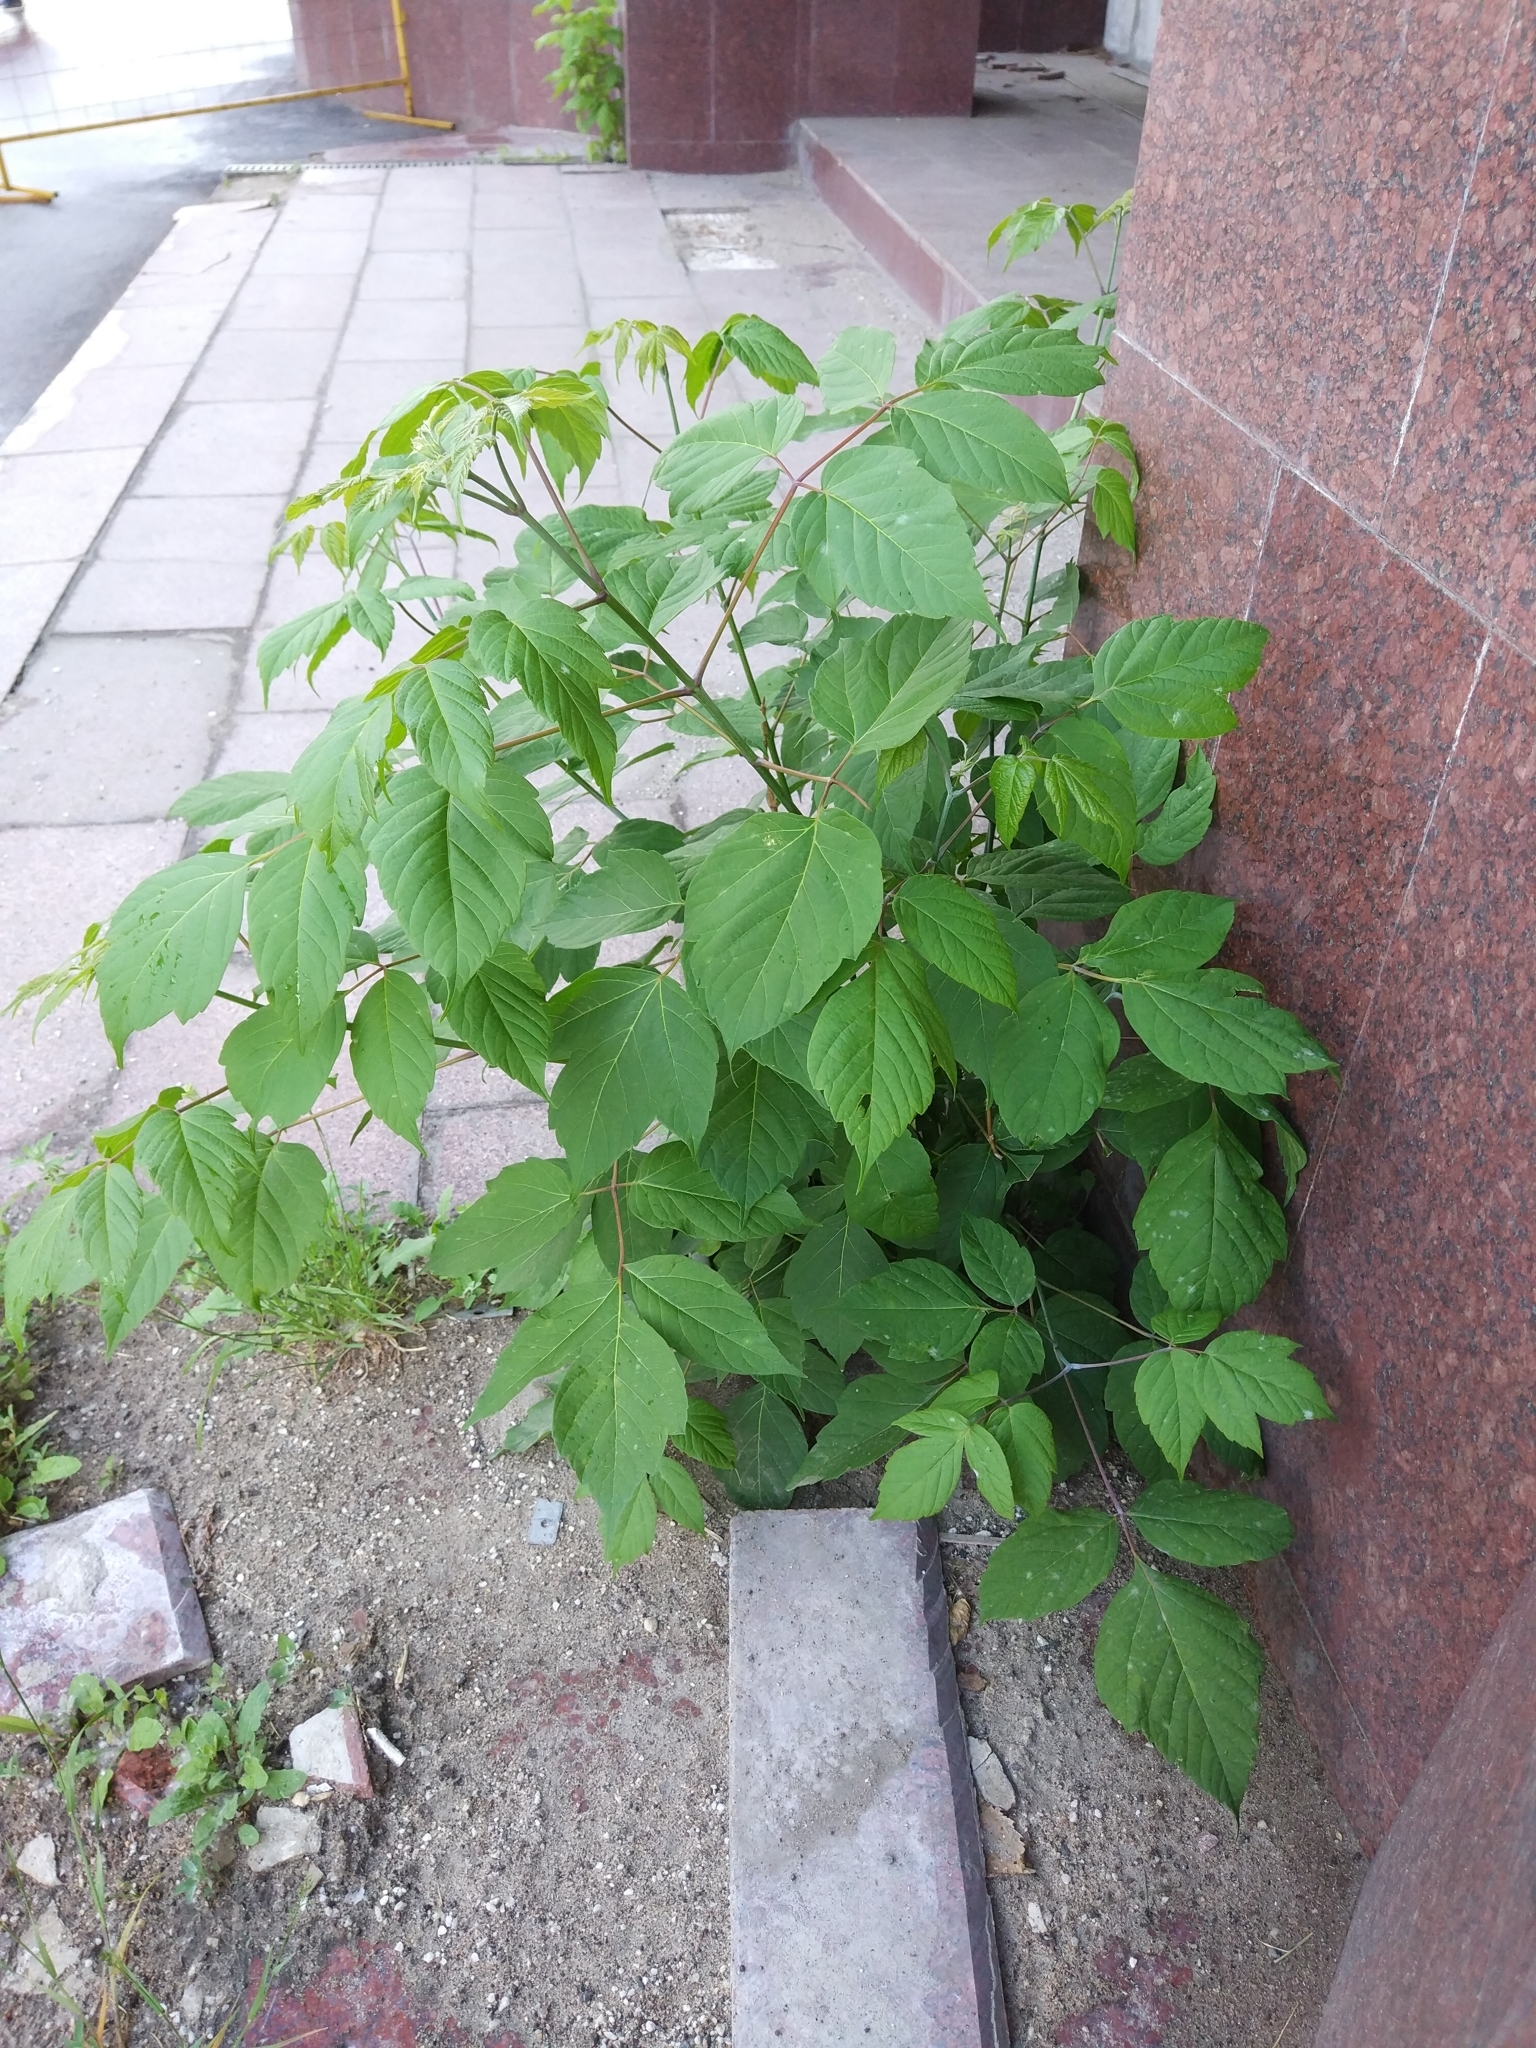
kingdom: Plantae
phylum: Tracheophyta
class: Magnoliopsida
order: Sapindales
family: Sapindaceae
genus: Acer
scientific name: Acer negundo
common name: Ashleaf maple
